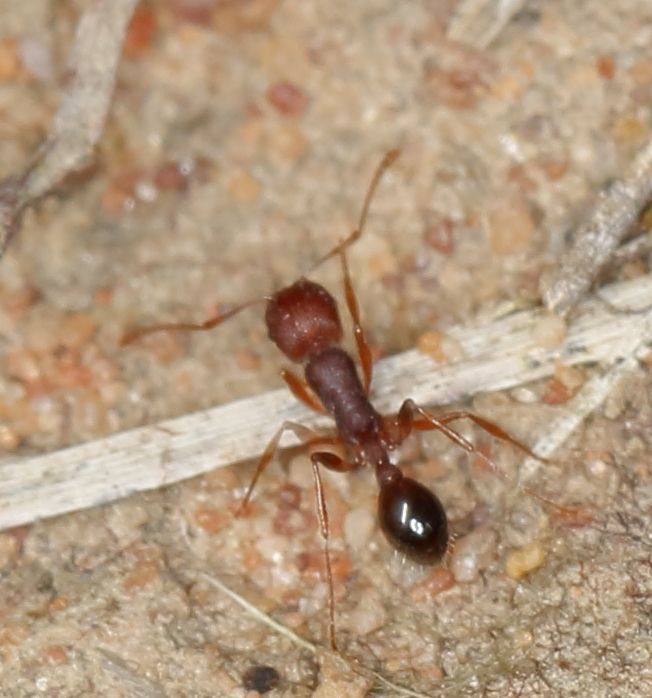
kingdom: Animalia
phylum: Arthropoda
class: Insecta
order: Hymenoptera
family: Formicidae
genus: Tetramorium
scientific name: Tetramorium sericeiventre
